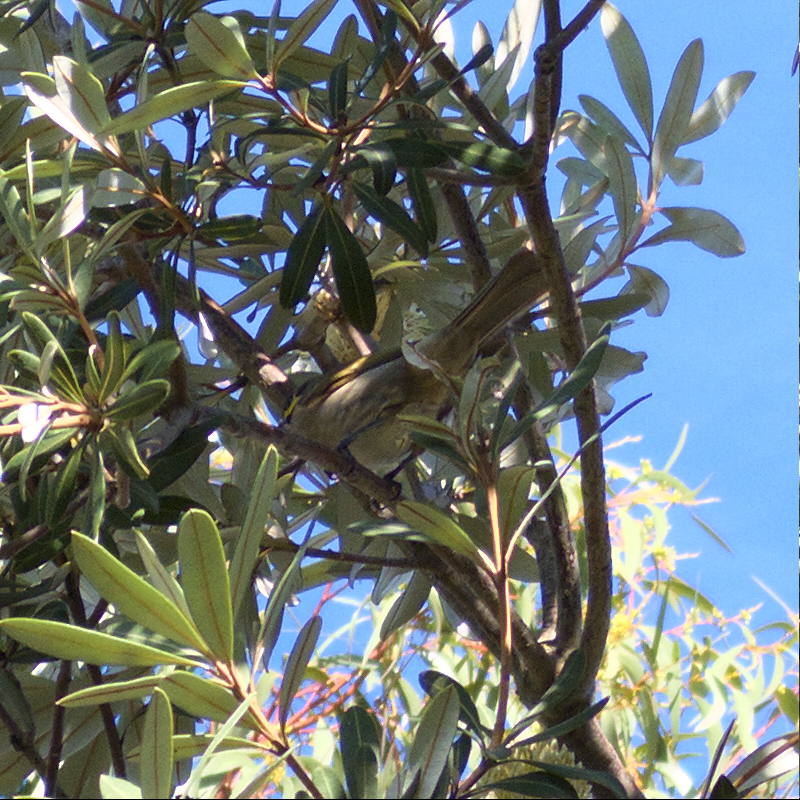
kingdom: Animalia
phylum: Chordata
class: Aves
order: Passeriformes
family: Meliphagidae
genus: Caligavis
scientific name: Caligavis chrysops
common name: Yellow-faced honeyeater
